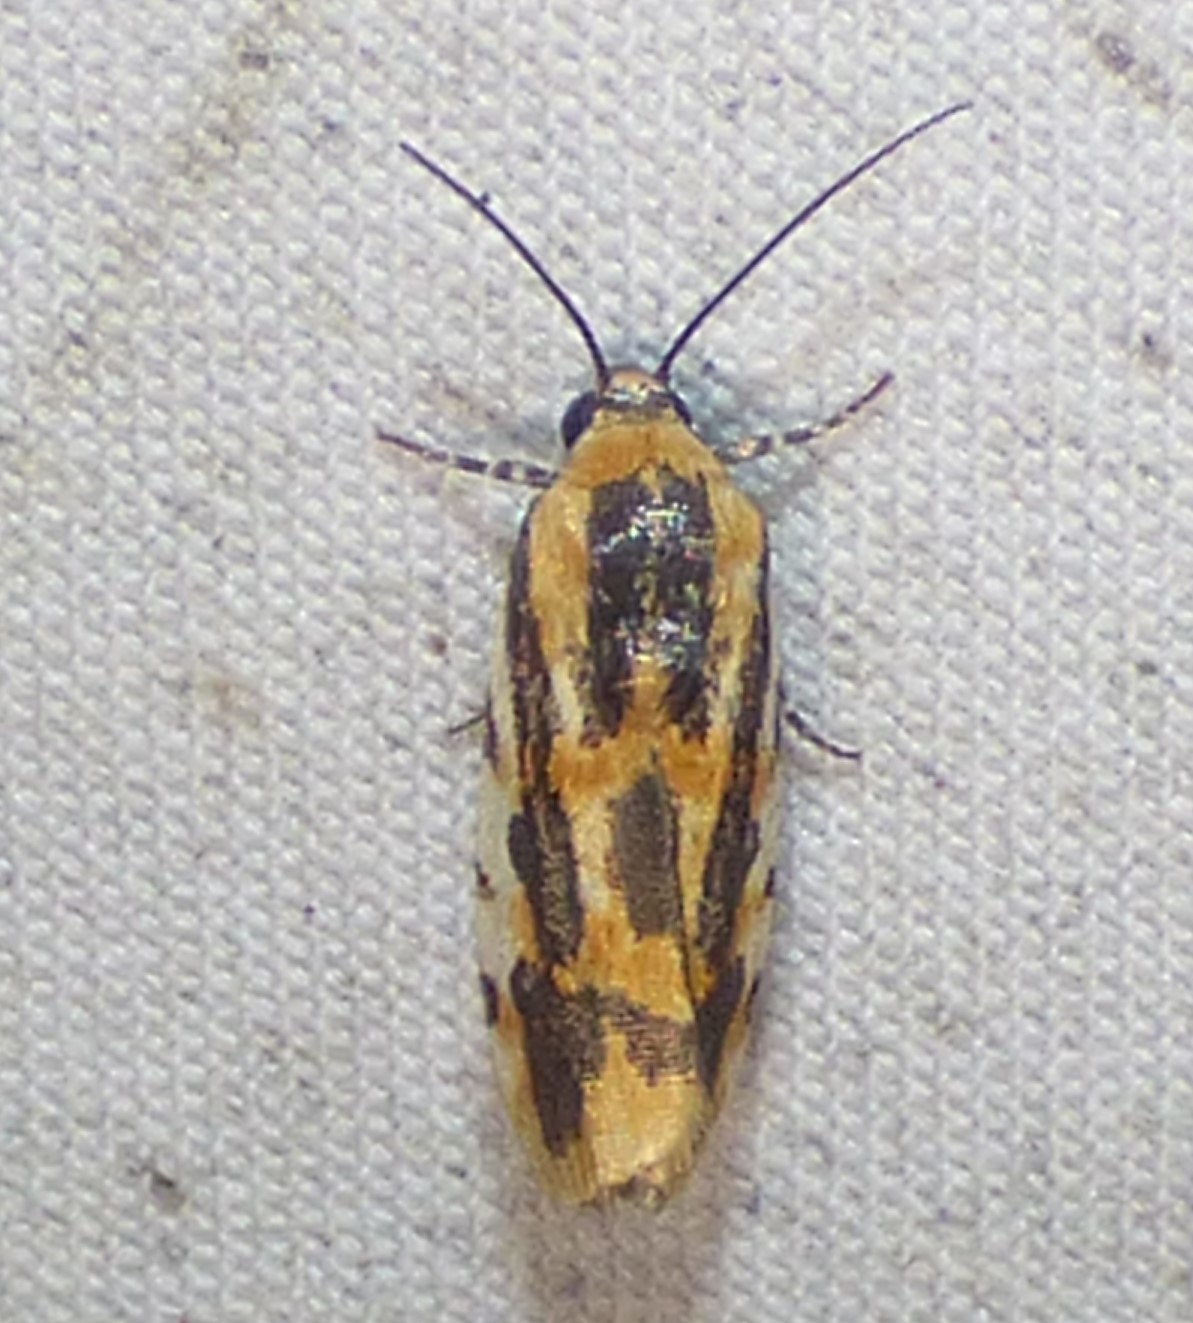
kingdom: Animalia
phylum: Arthropoda
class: Insecta
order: Lepidoptera
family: Noctuidae
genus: Acontia
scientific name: Acontia leo
